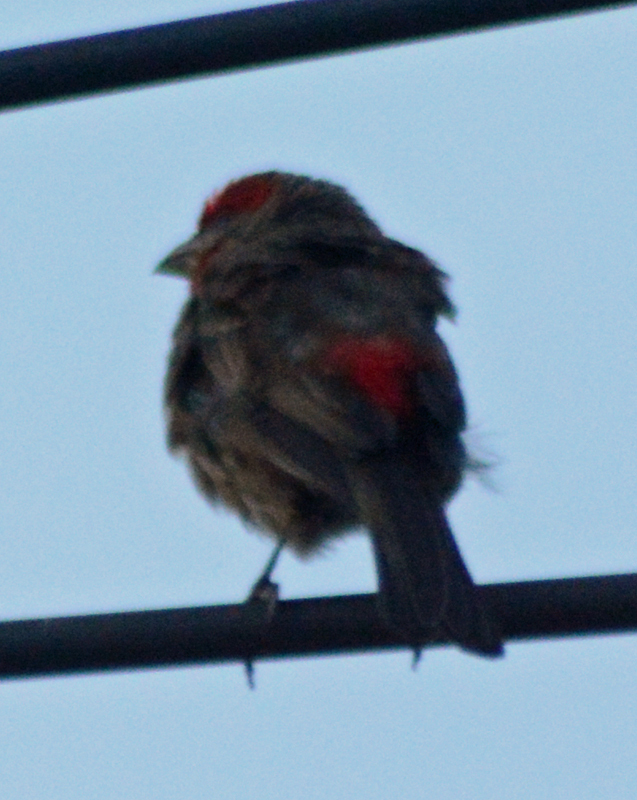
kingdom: Animalia
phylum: Chordata
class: Aves
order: Passeriformes
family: Fringillidae
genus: Haemorhous
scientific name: Haemorhous mexicanus
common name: House finch
